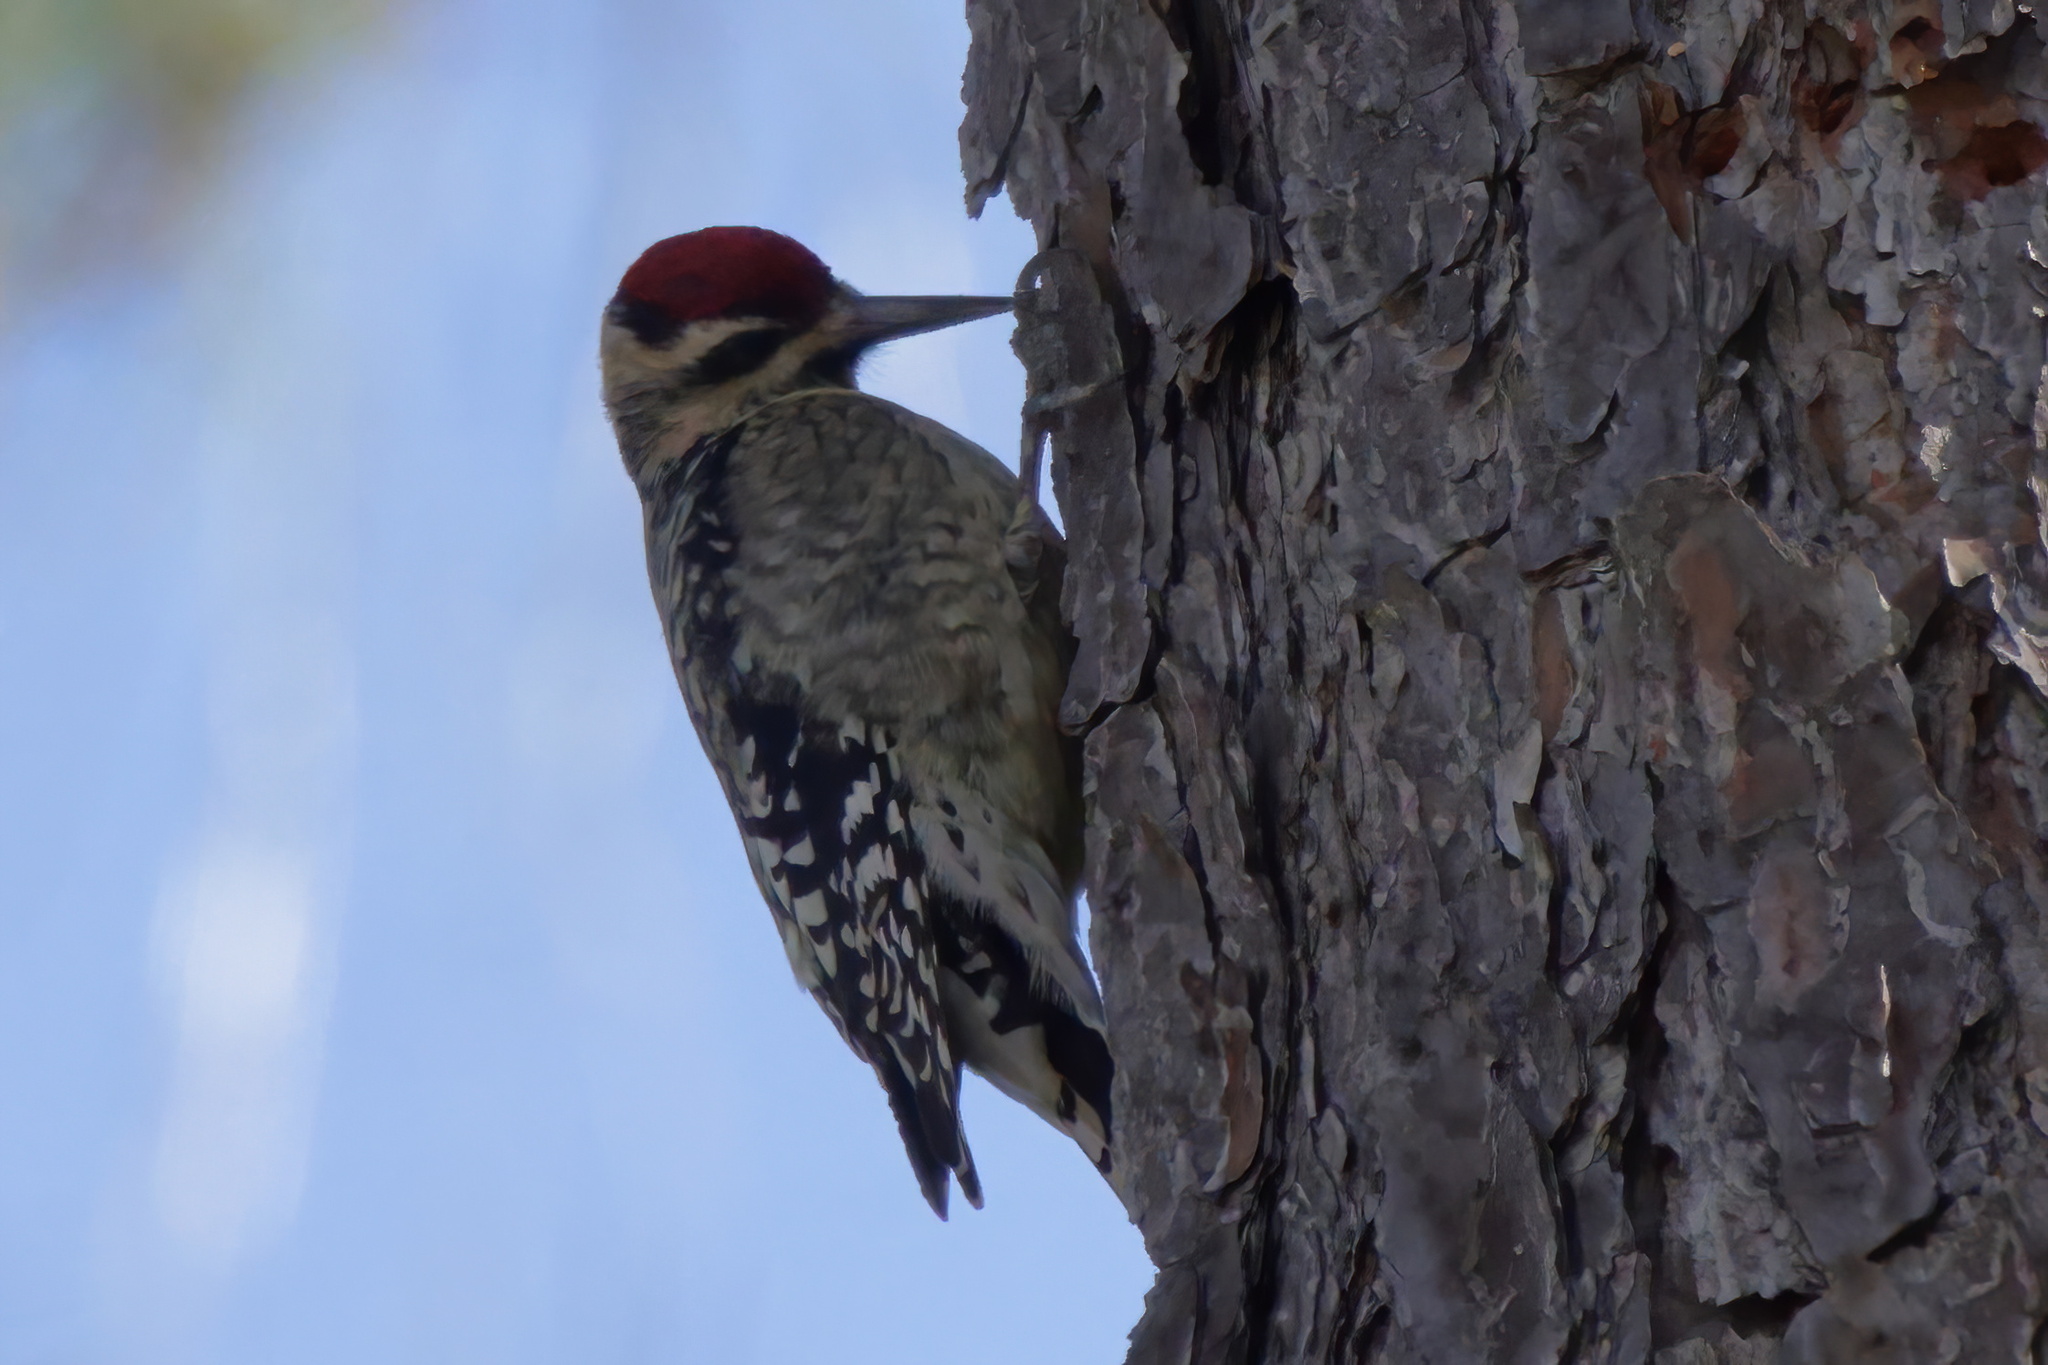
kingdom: Animalia
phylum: Chordata
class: Aves
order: Piciformes
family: Picidae
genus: Sphyrapicus
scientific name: Sphyrapicus varius
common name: Yellow-bellied sapsucker
